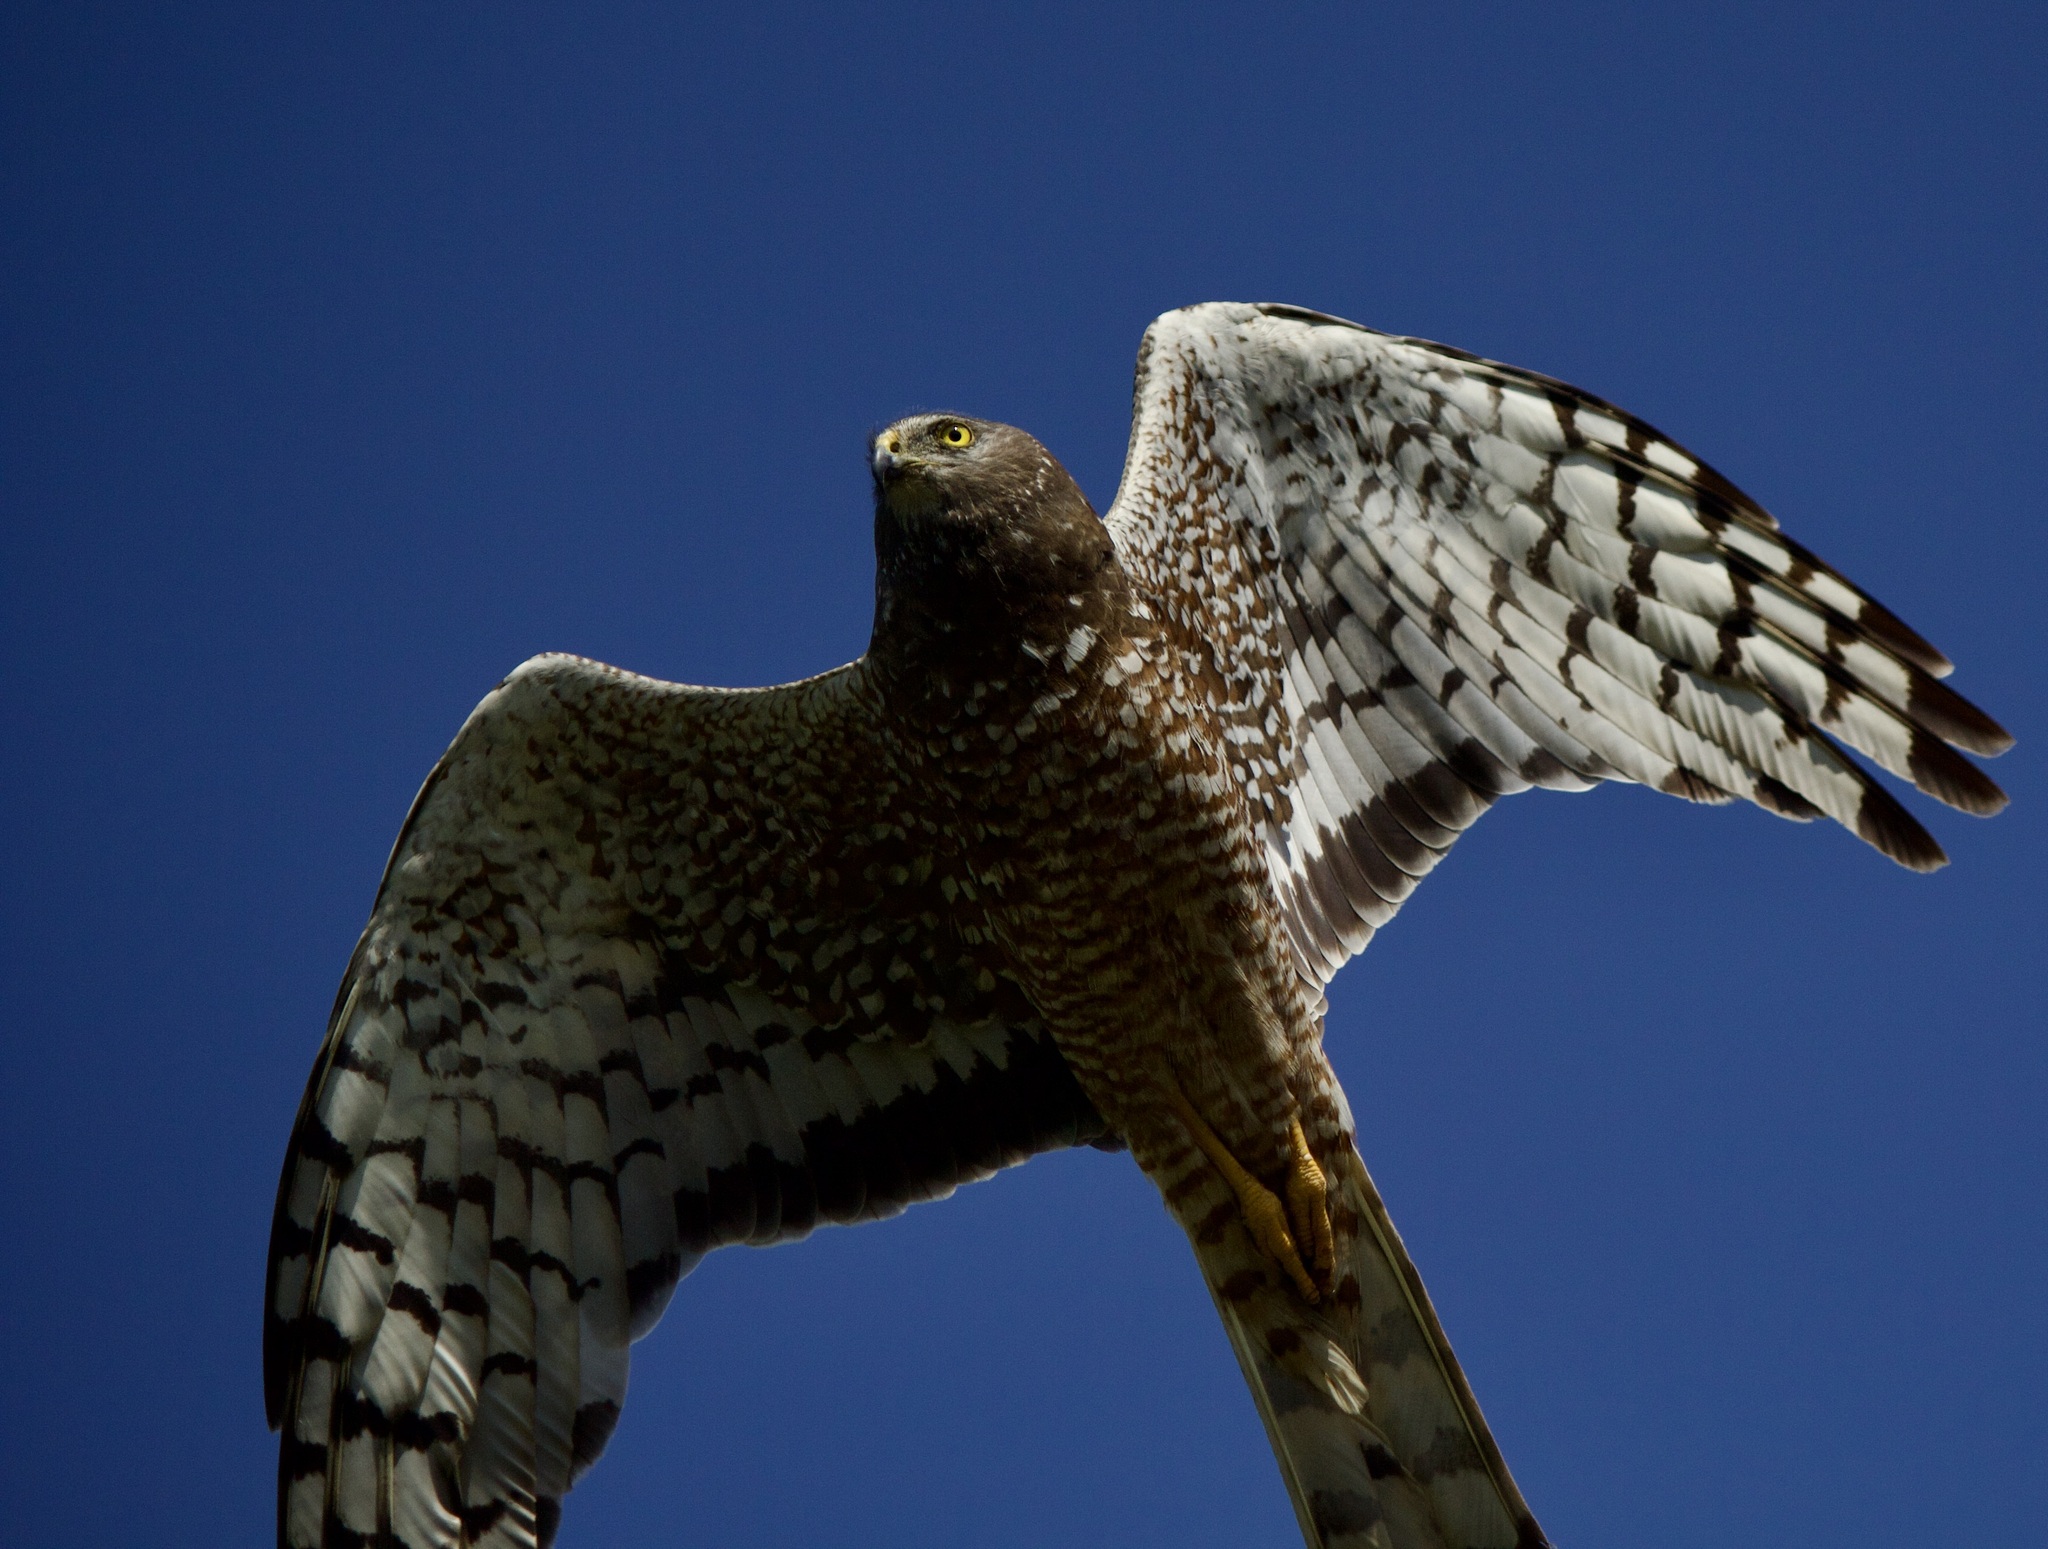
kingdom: Animalia
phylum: Chordata
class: Aves
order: Accipitriformes
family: Accipitridae
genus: Circus
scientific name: Circus cinereus
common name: Cinereous harrier
